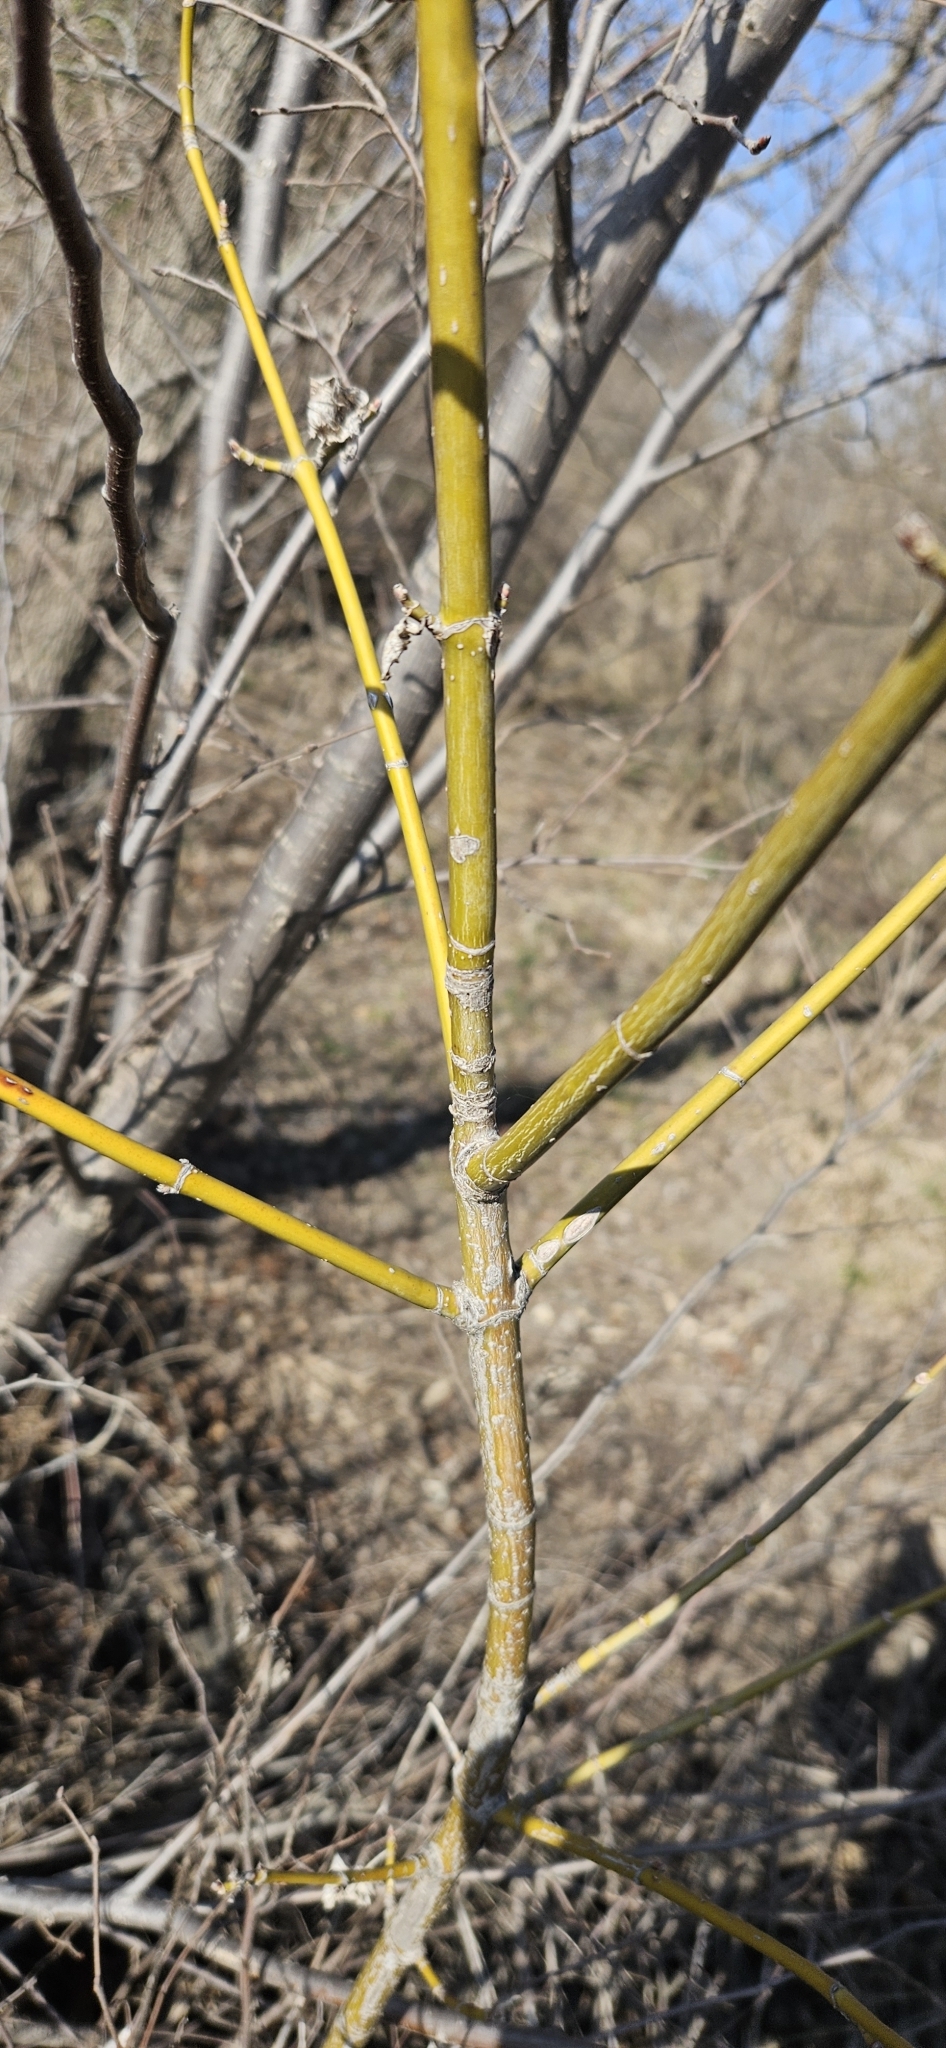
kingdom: Plantae
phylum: Tracheophyta
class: Magnoliopsida
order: Sapindales
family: Sapindaceae
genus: Acer
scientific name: Acer negundo
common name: Ashleaf maple
